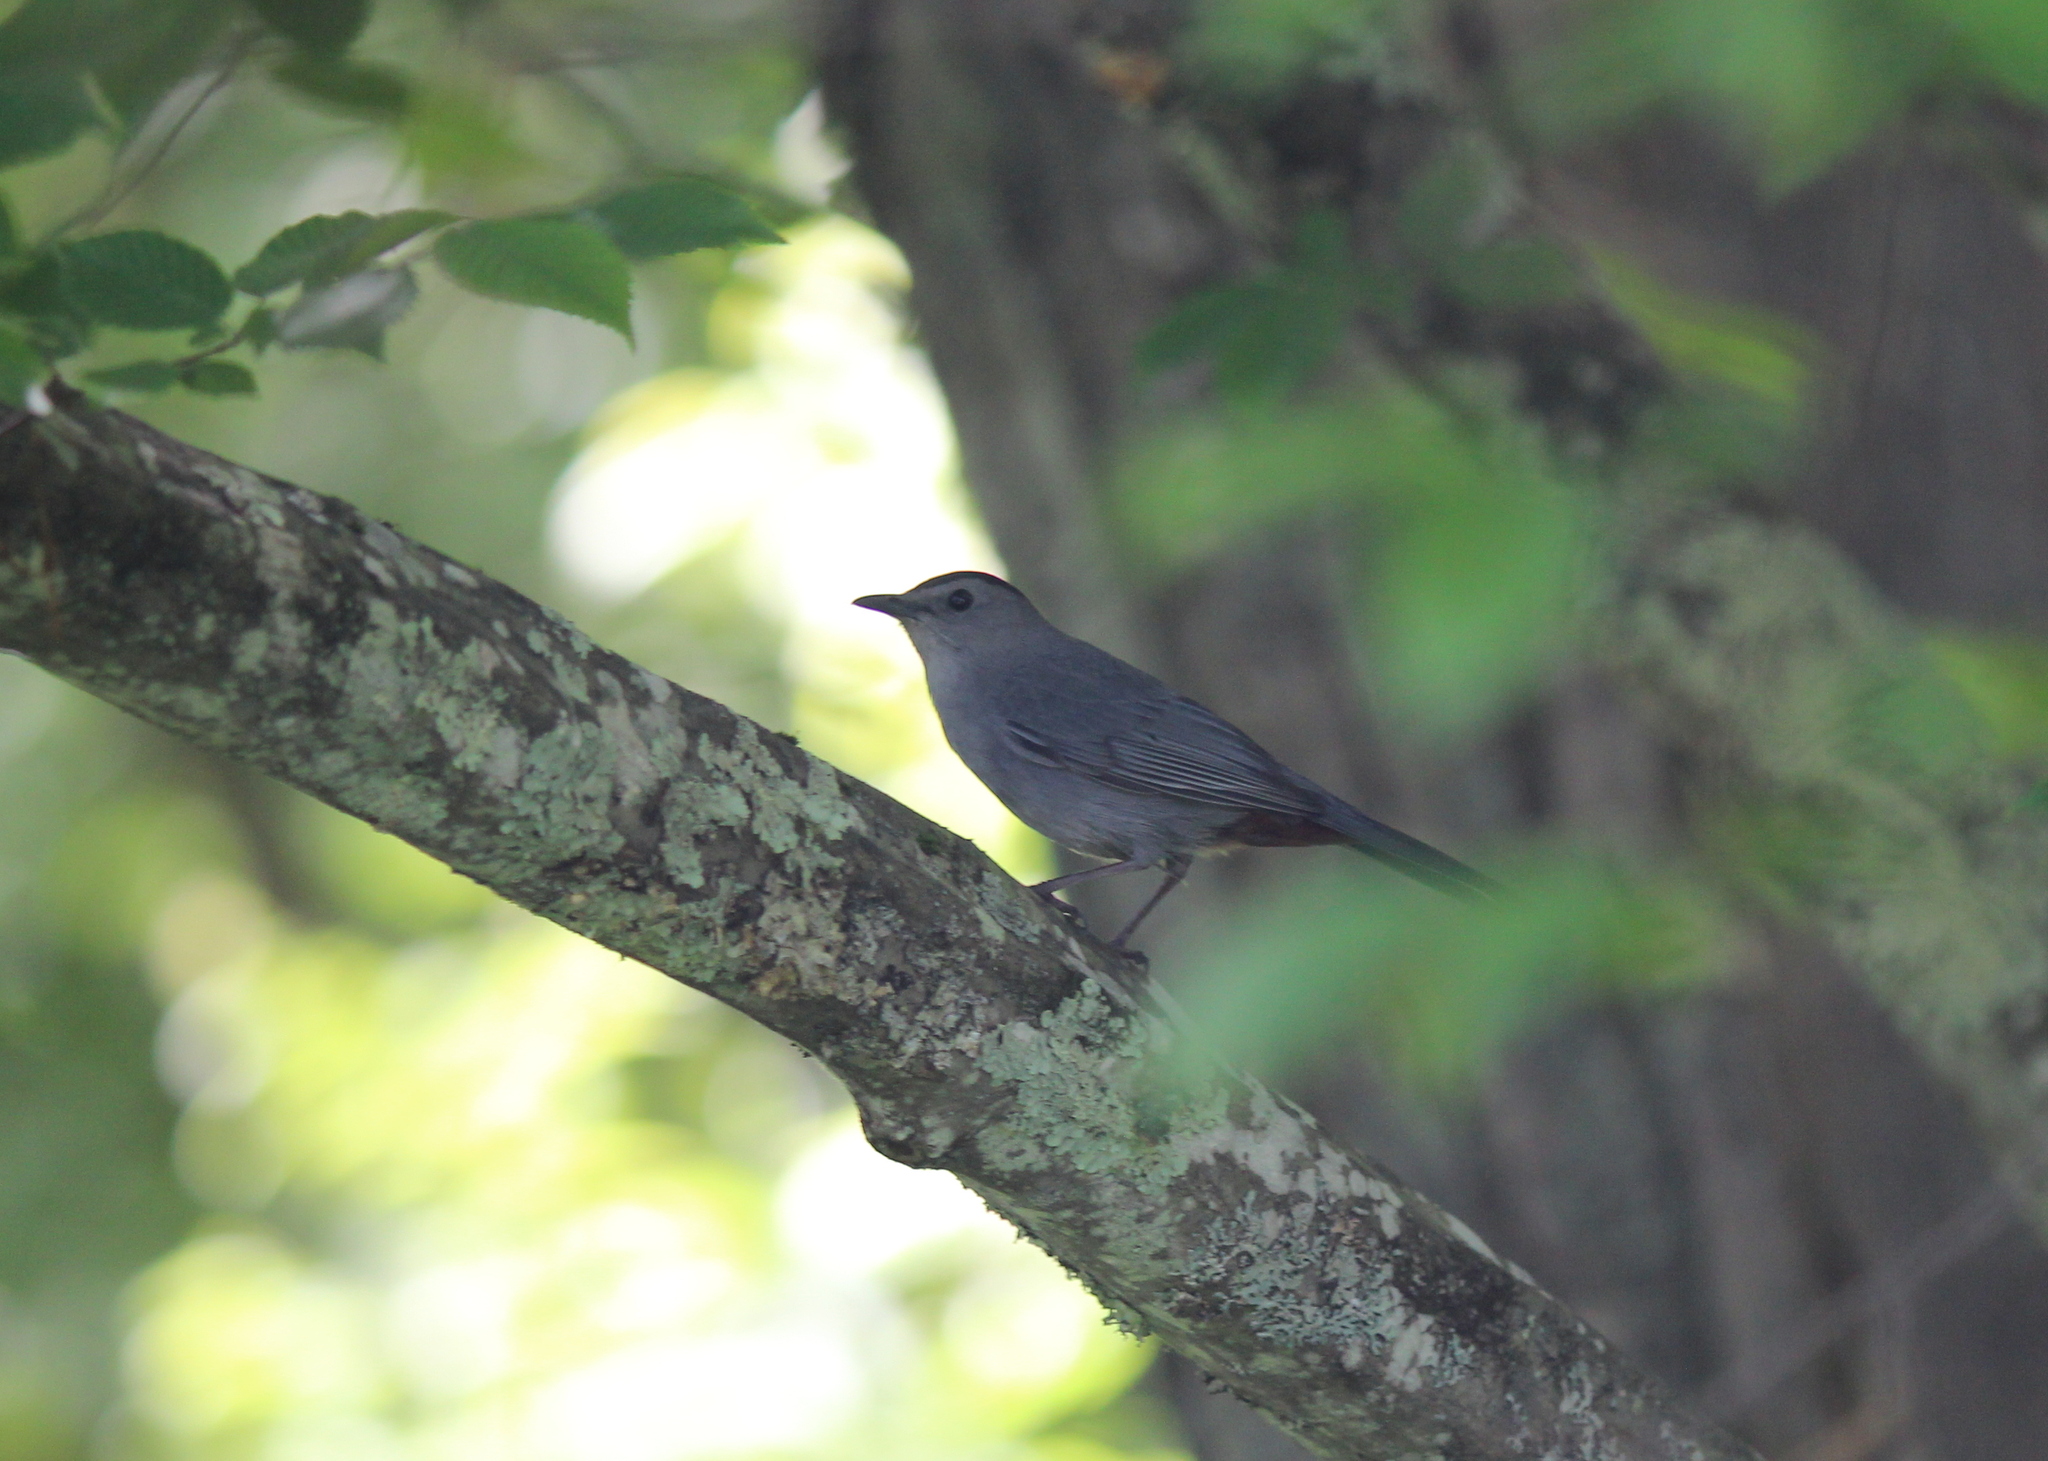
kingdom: Animalia
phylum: Chordata
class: Aves
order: Passeriformes
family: Mimidae
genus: Dumetella
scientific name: Dumetella carolinensis
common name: Gray catbird
